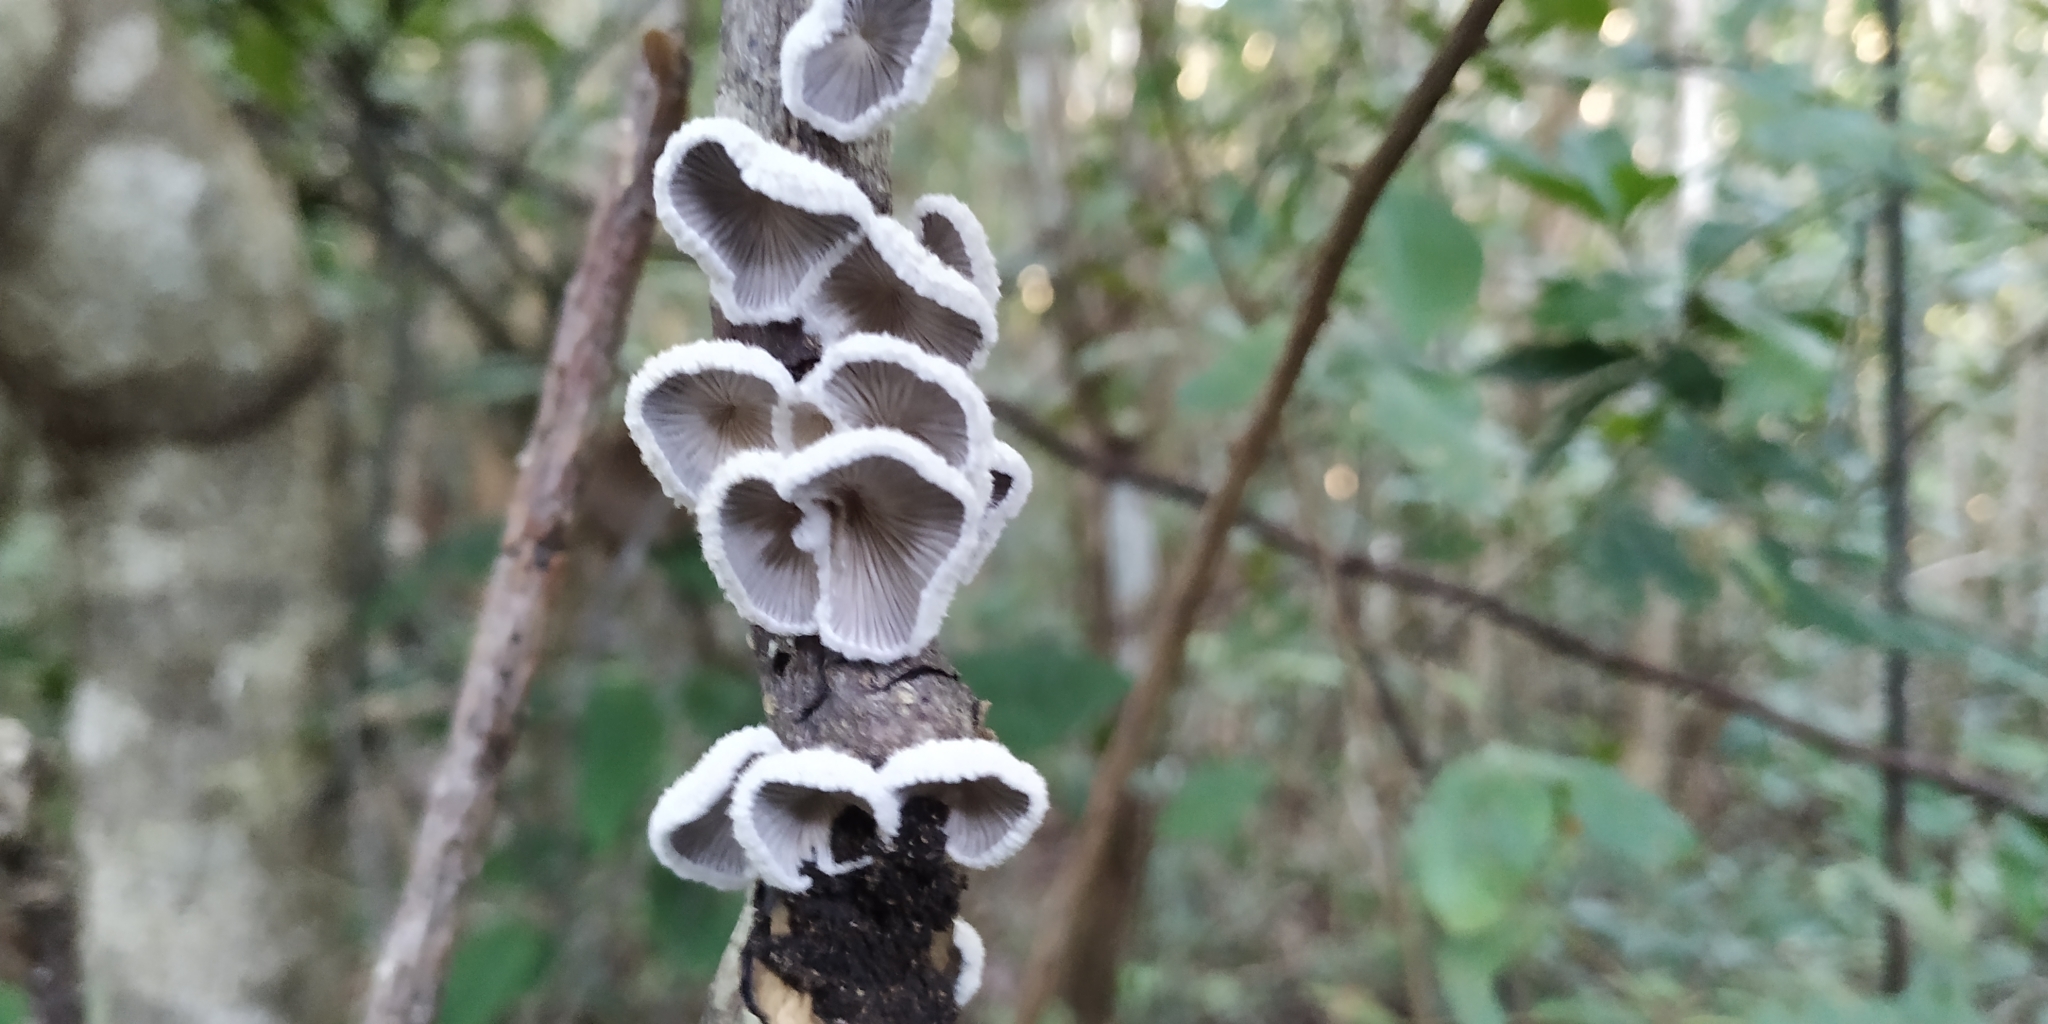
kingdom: Fungi
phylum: Basidiomycota
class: Agaricomycetes
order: Agaricales
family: Schizophyllaceae
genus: Schizophyllum
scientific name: Schizophyllum commune
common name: Common porecrust
